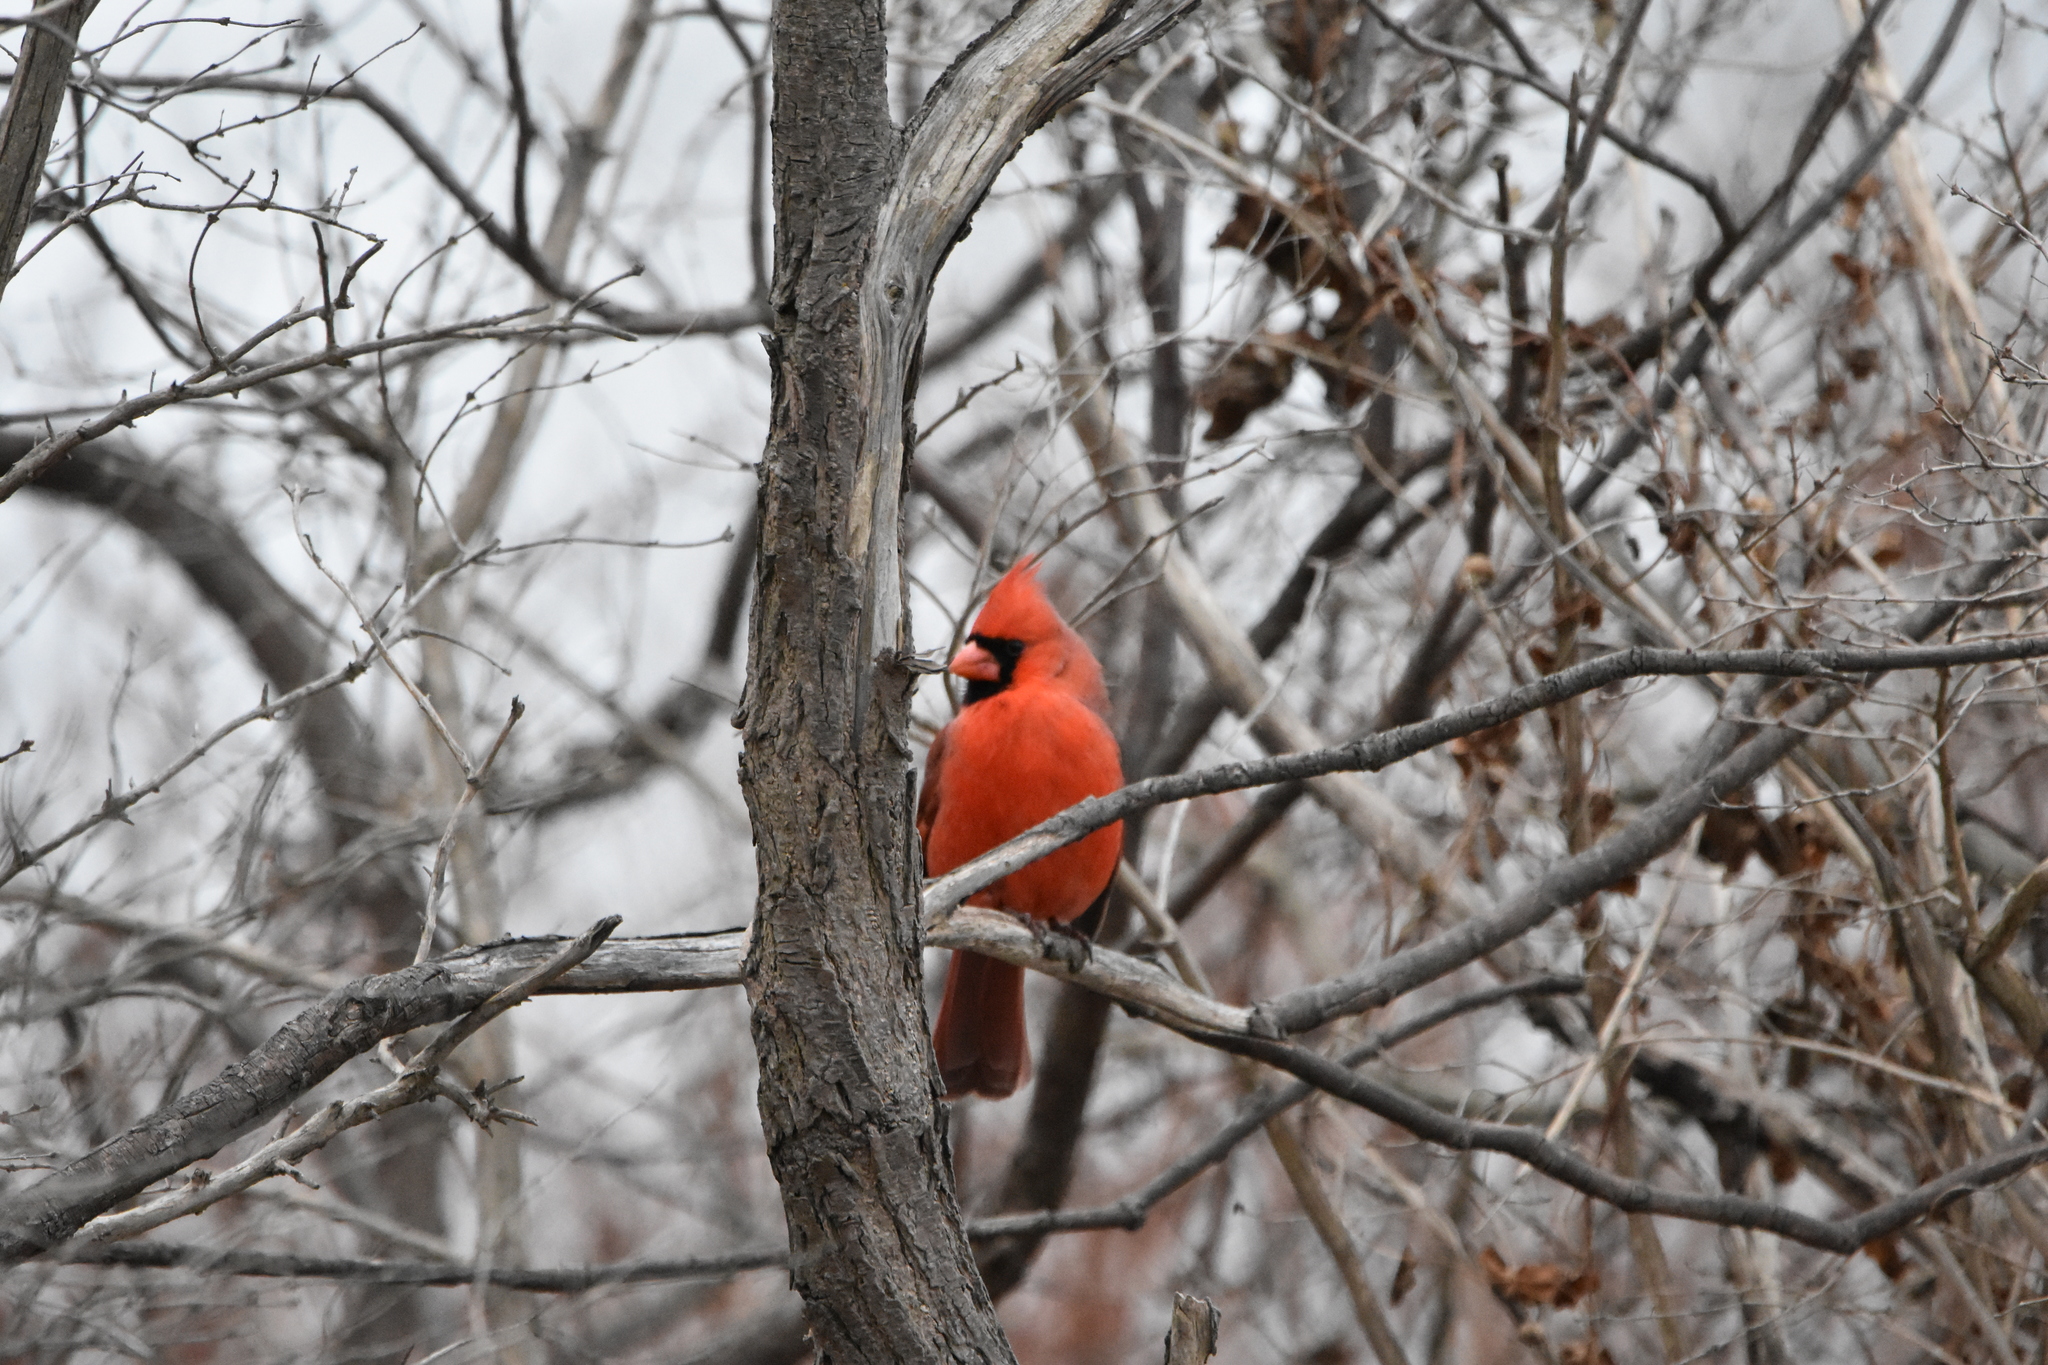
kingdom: Animalia
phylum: Chordata
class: Aves
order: Passeriformes
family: Cardinalidae
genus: Cardinalis
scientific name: Cardinalis cardinalis
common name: Northern cardinal
